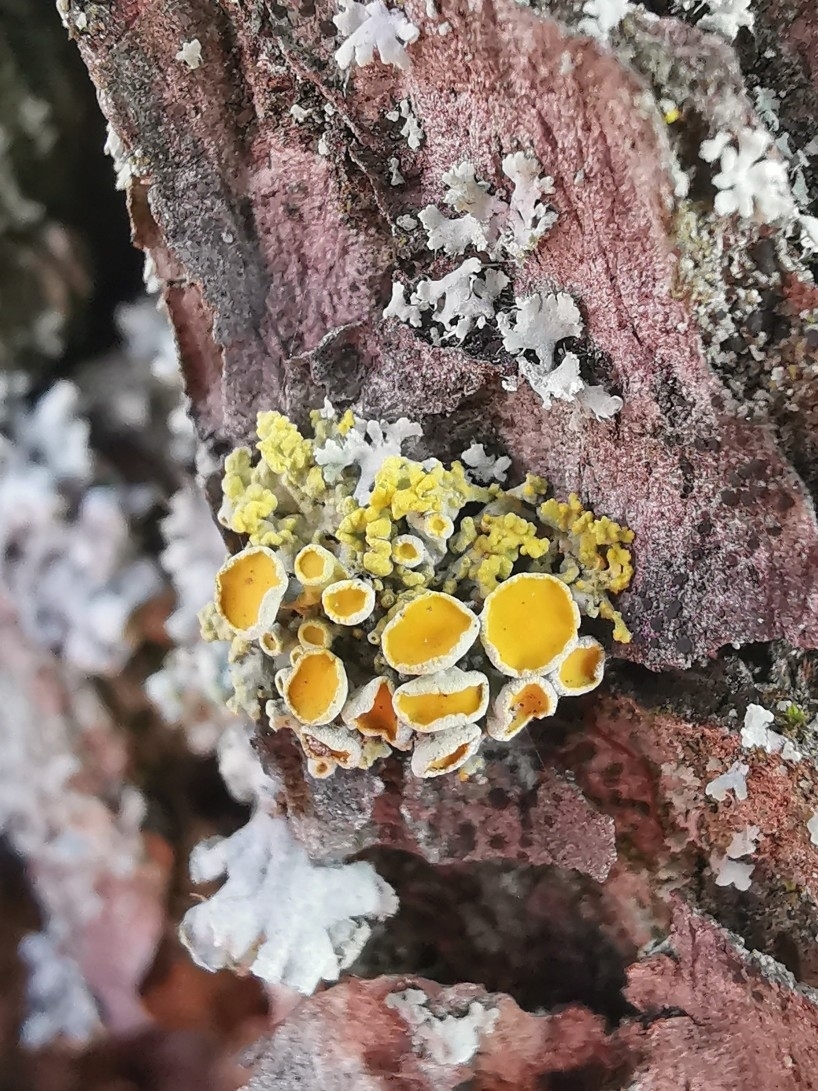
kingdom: Fungi
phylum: Ascomycota
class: Lecanoromycetes
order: Teloschistales
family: Teloschistaceae
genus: Polycauliona
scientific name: Polycauliona polycarpa
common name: Pin-cushion sunburst lichen
